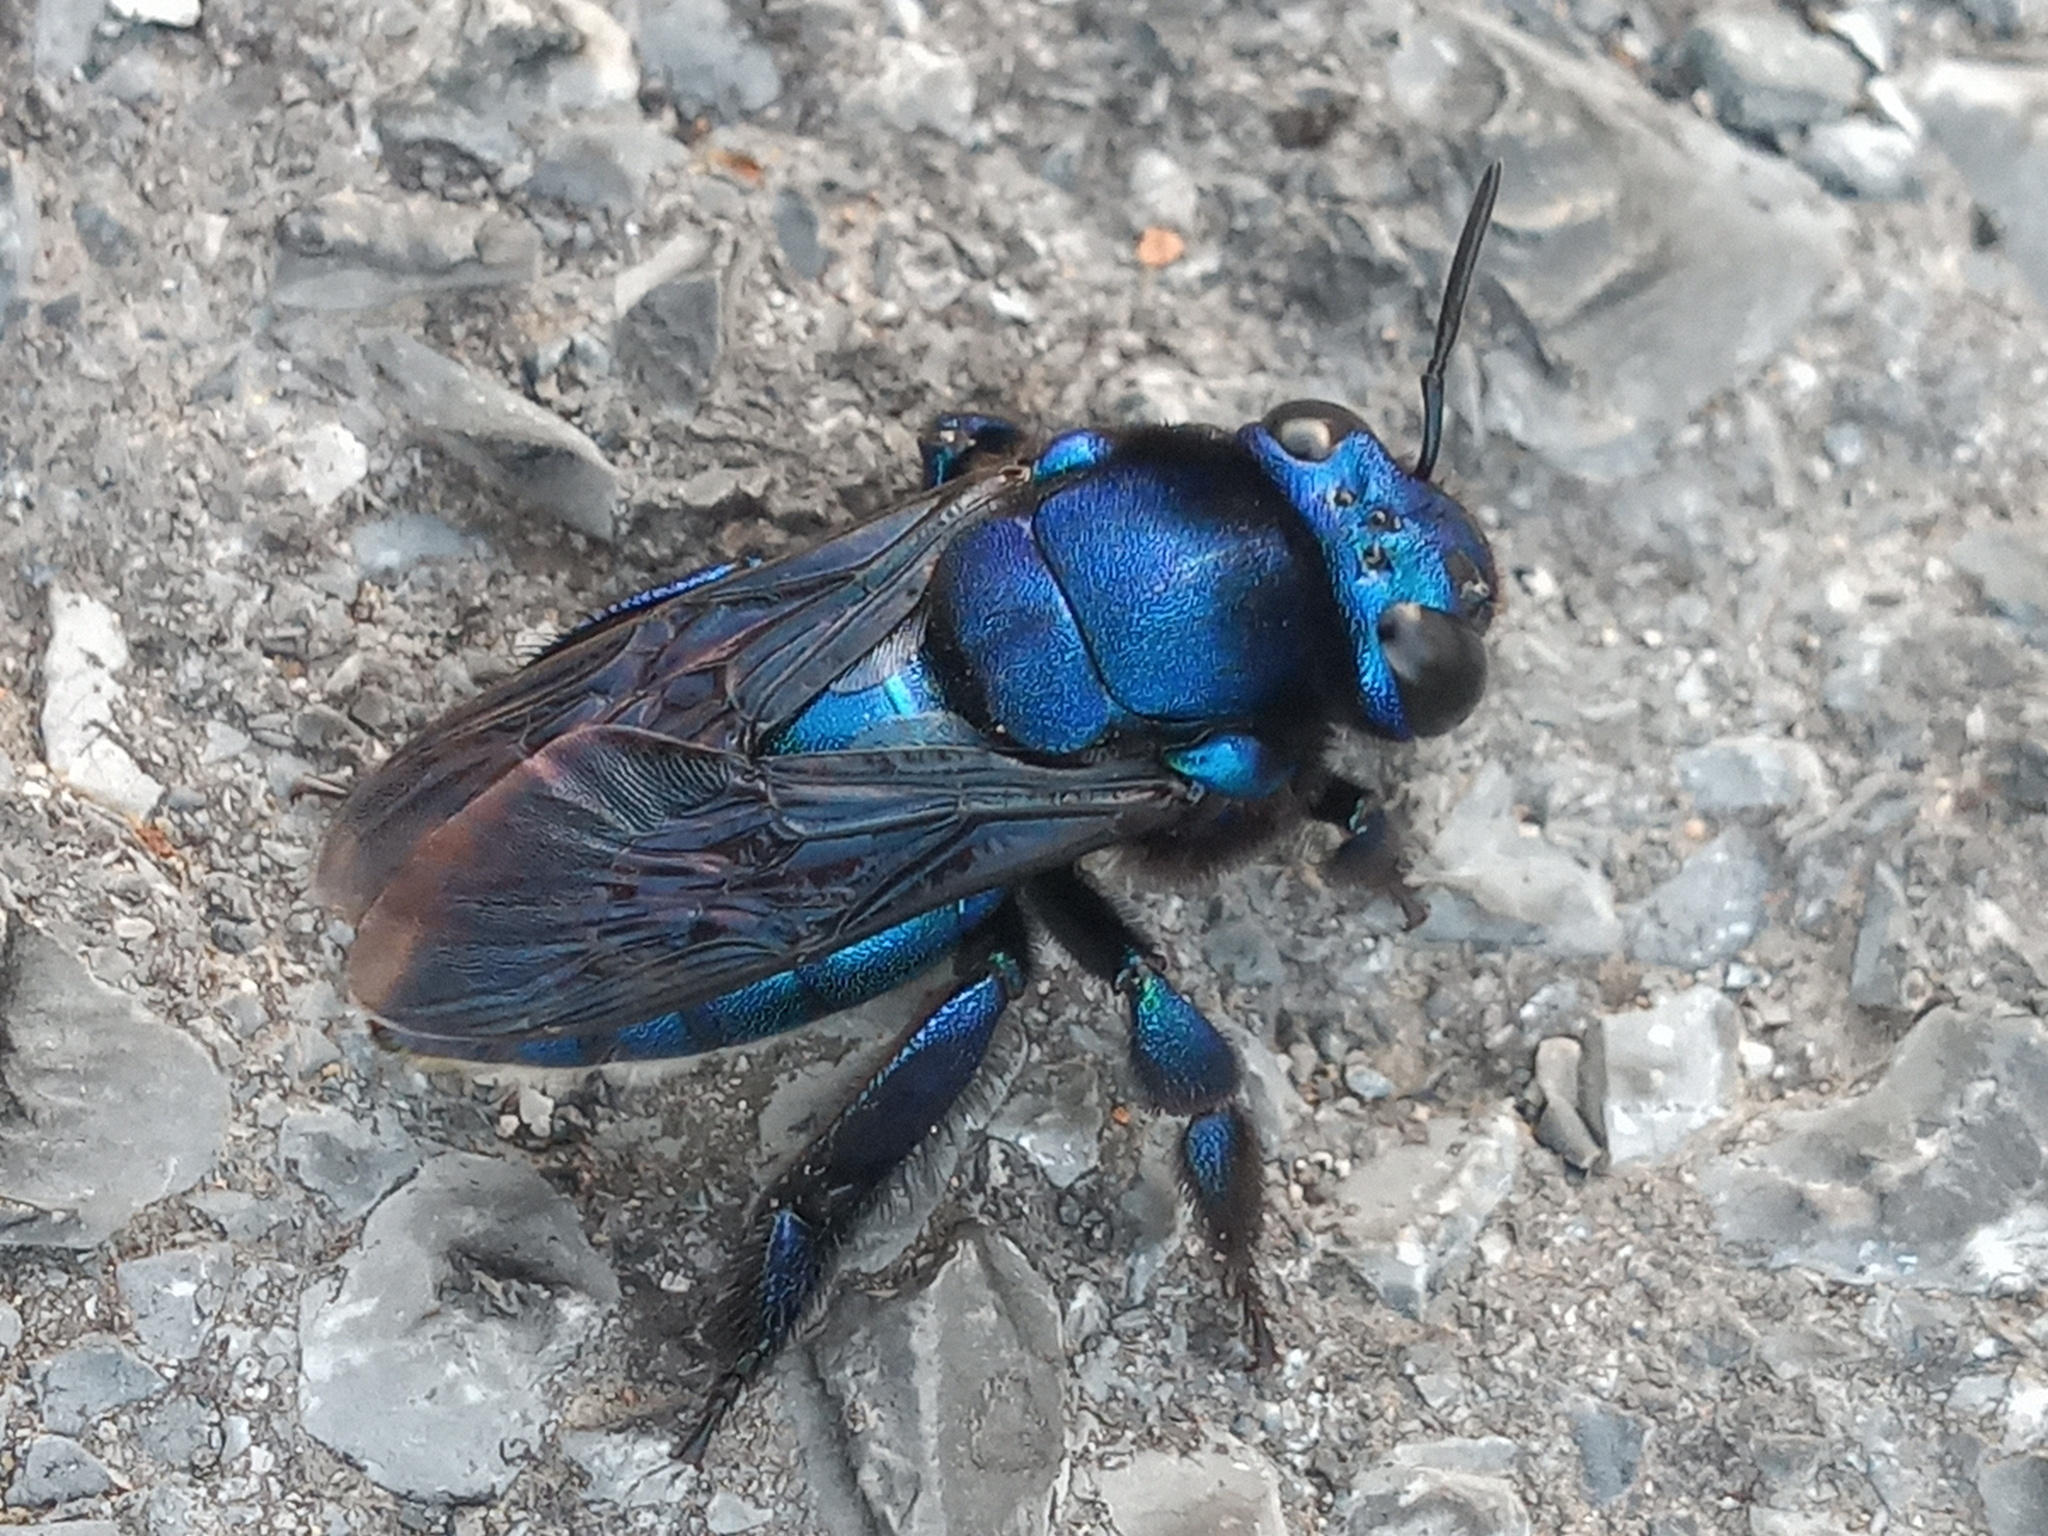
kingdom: Animalia
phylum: Arthropoda
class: Insecta
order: Hymenoptera
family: Apidae
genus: Eufriesea
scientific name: Eufriesea caerulescens
